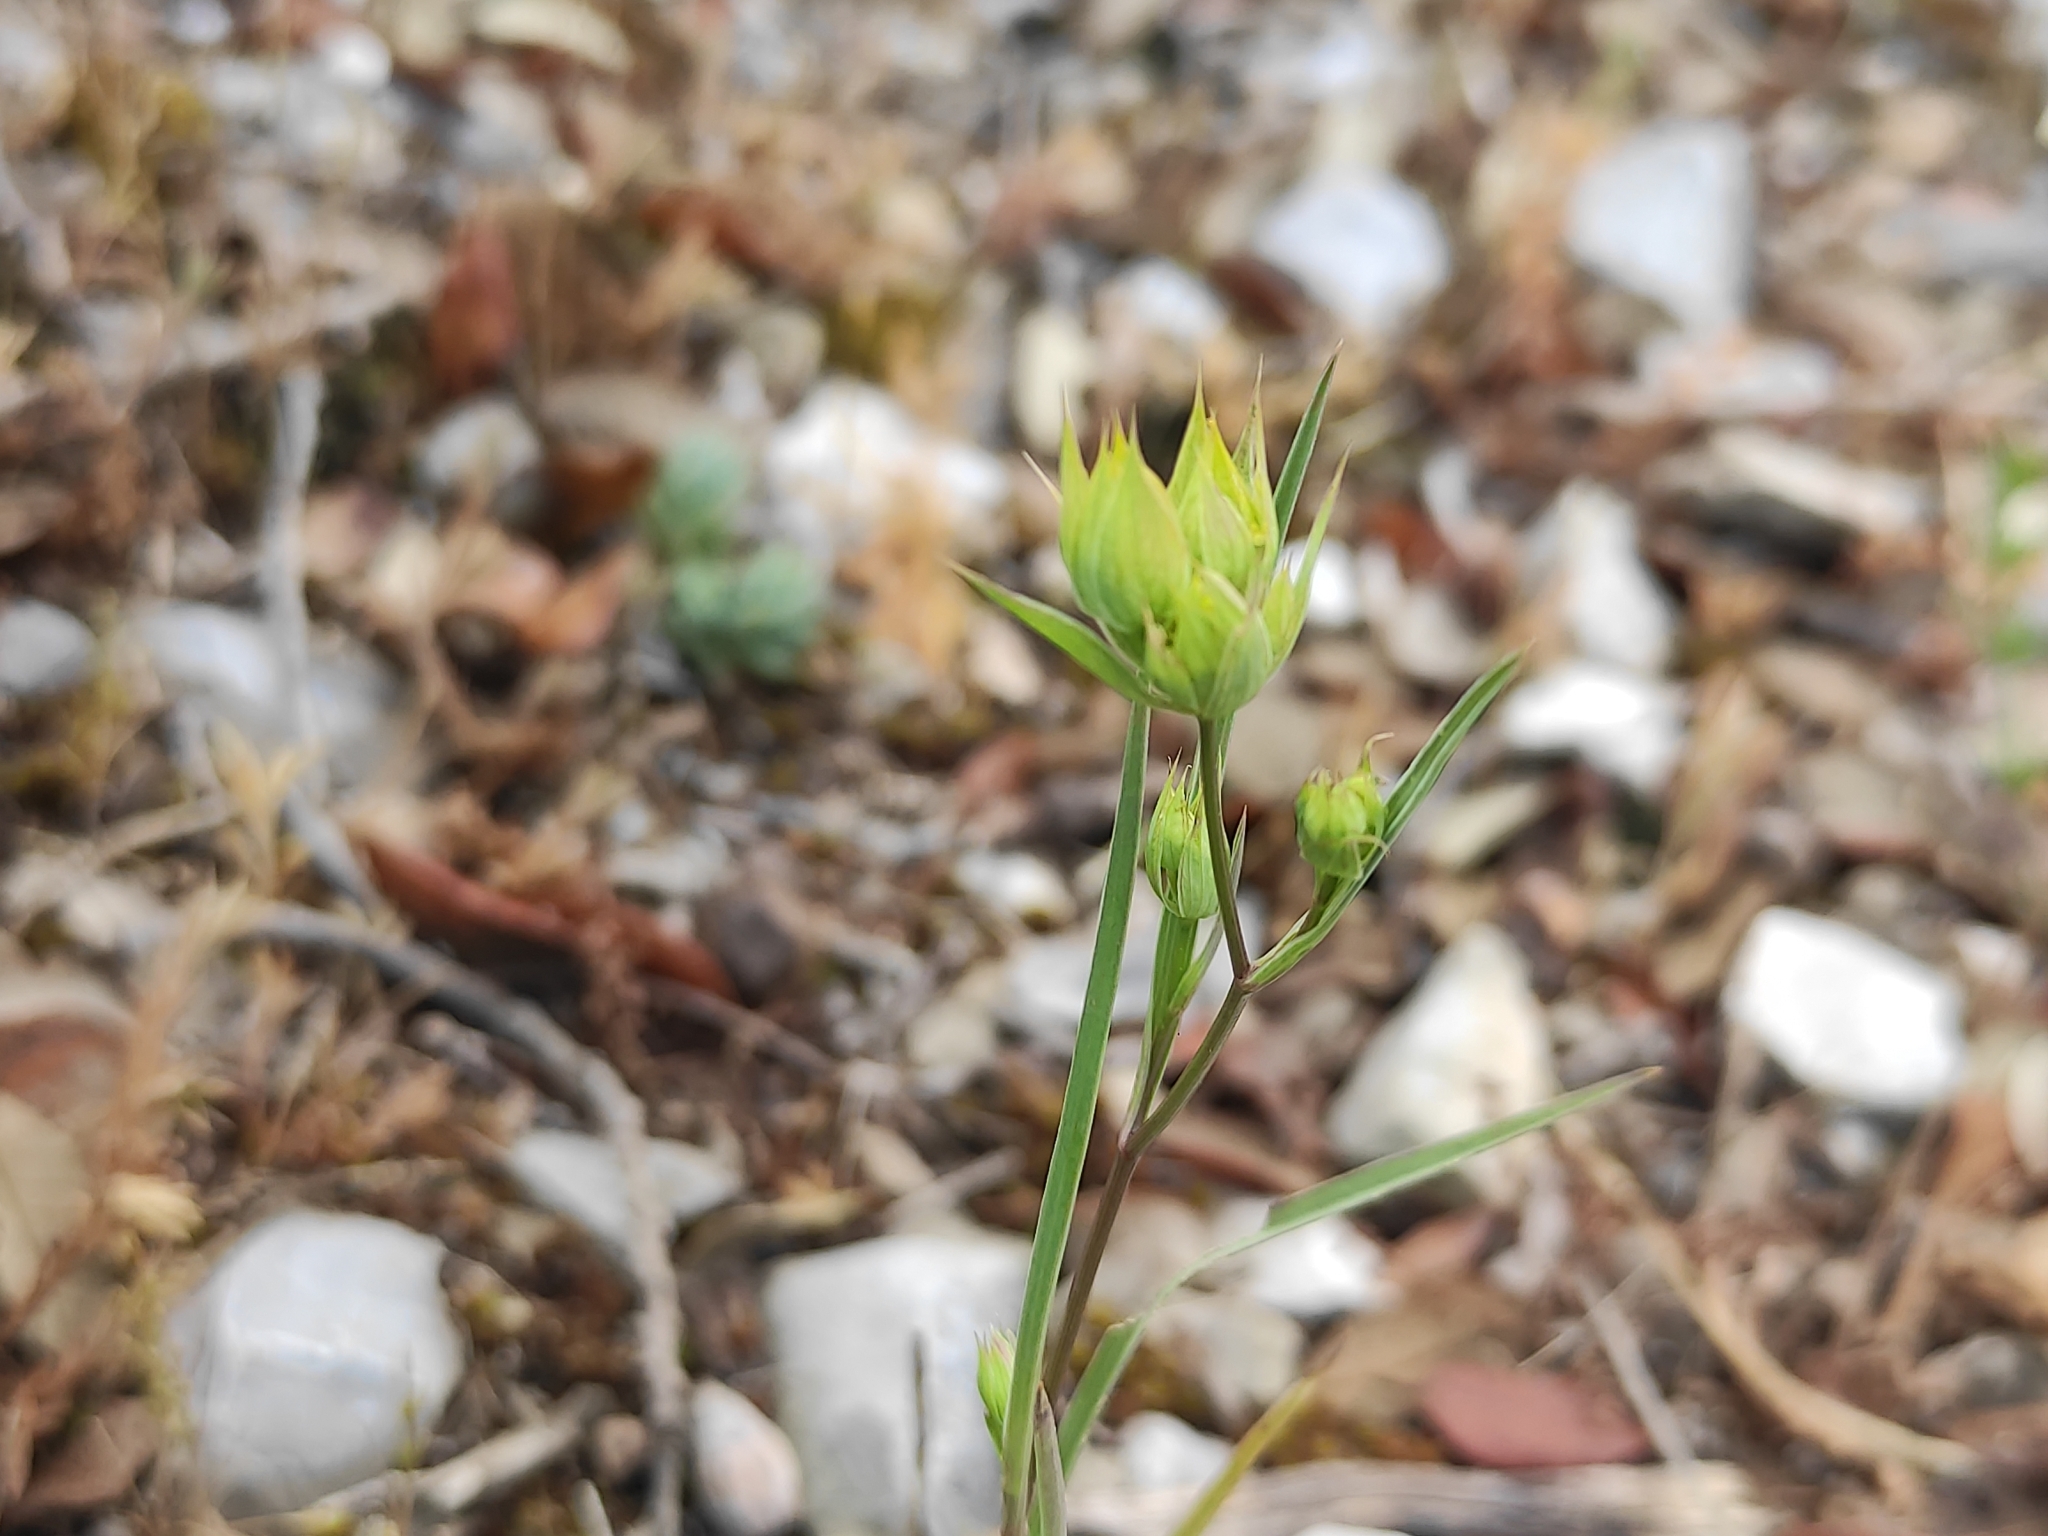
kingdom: Plantae
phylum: Tracheophyta
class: Magnoliopsida
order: Apiales
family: Apiaceae
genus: Bupleurum
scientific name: Bupleurum baldense
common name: Small hare's-ear
